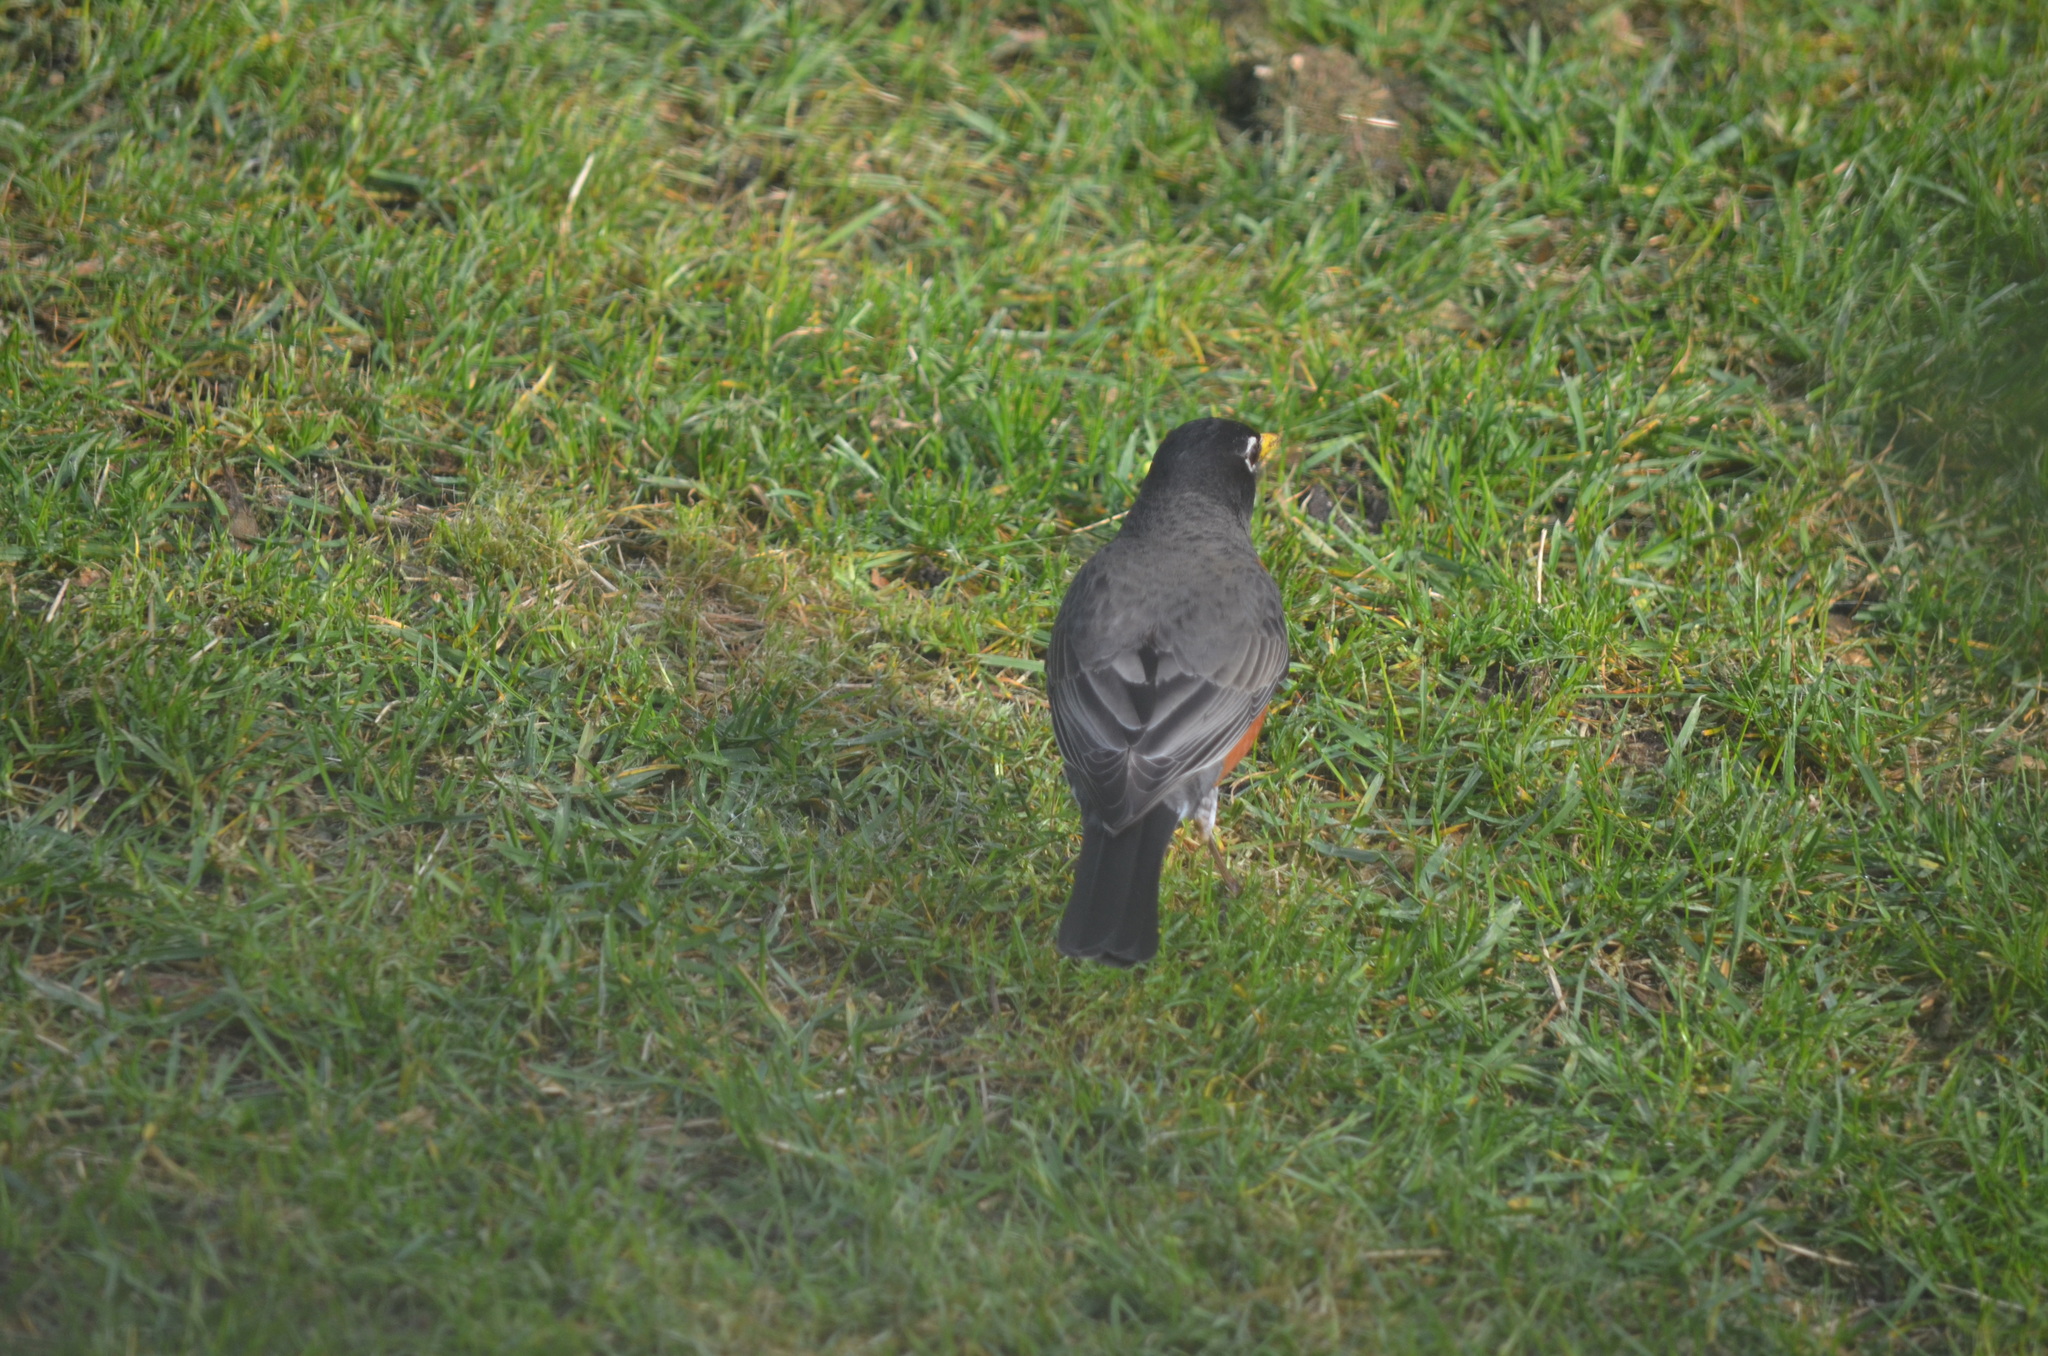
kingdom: Animalia
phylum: Chordata
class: Aves
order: Passeriformes
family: Turdidae
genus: Turdus
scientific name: Turdus migratorius
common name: American robin
